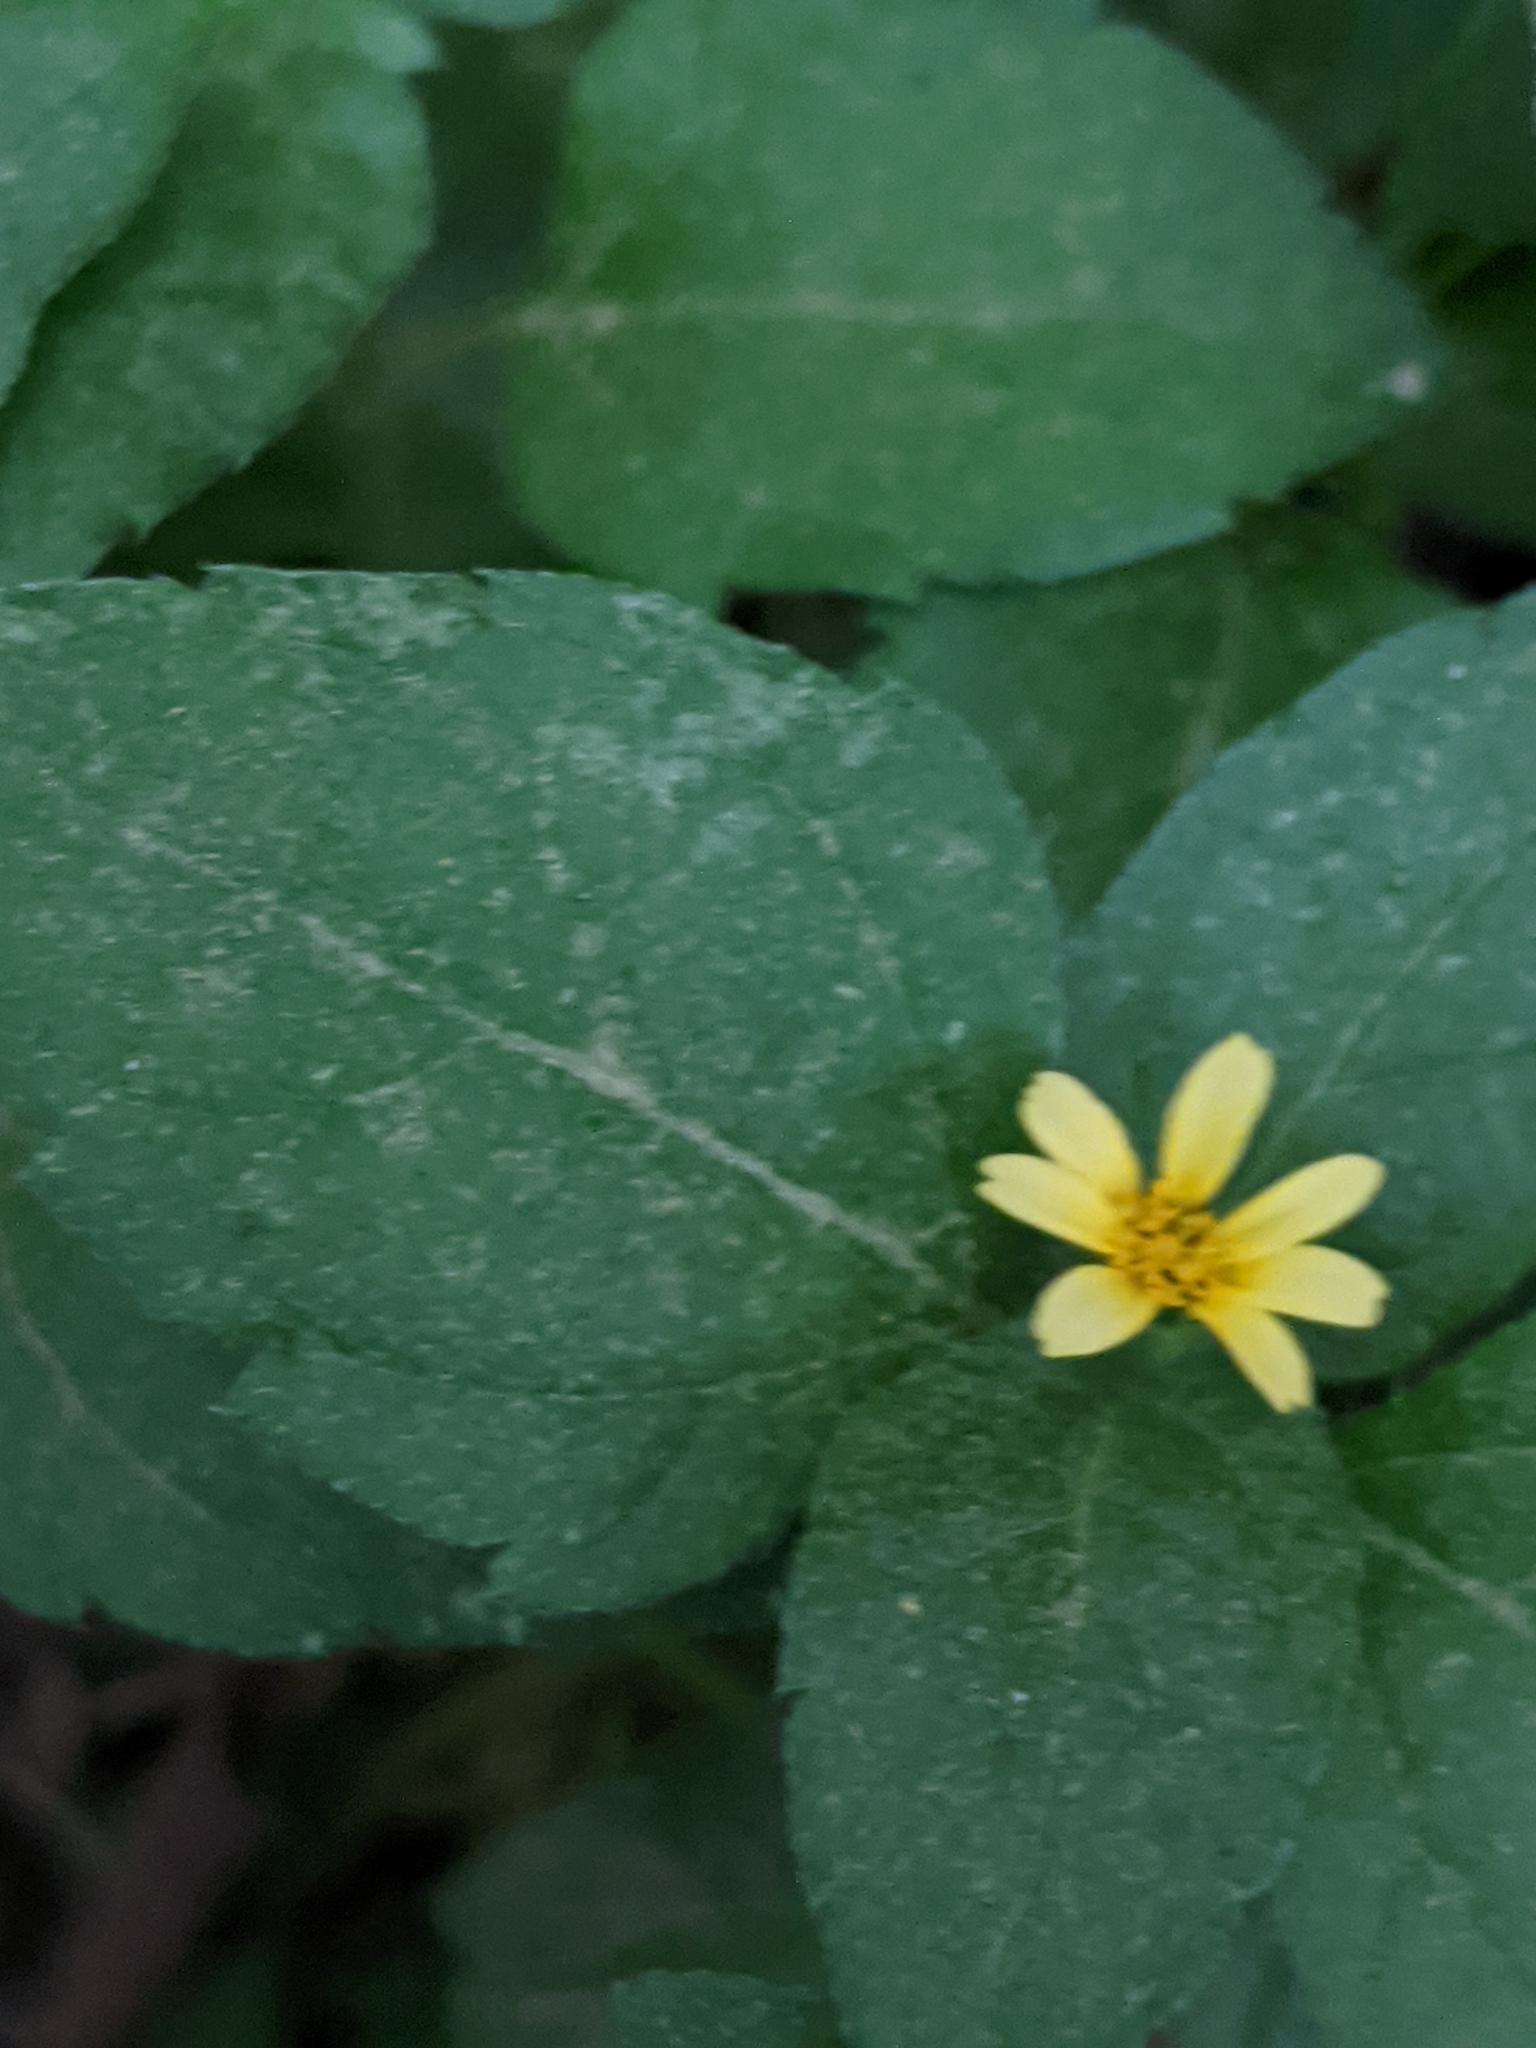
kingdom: Plantae
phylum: Tracheophyta
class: Magnoliopsida
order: Asterales
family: Asteraceae
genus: Calyptocarpus
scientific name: Calyptocarpus vialis
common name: Straggler daisy
